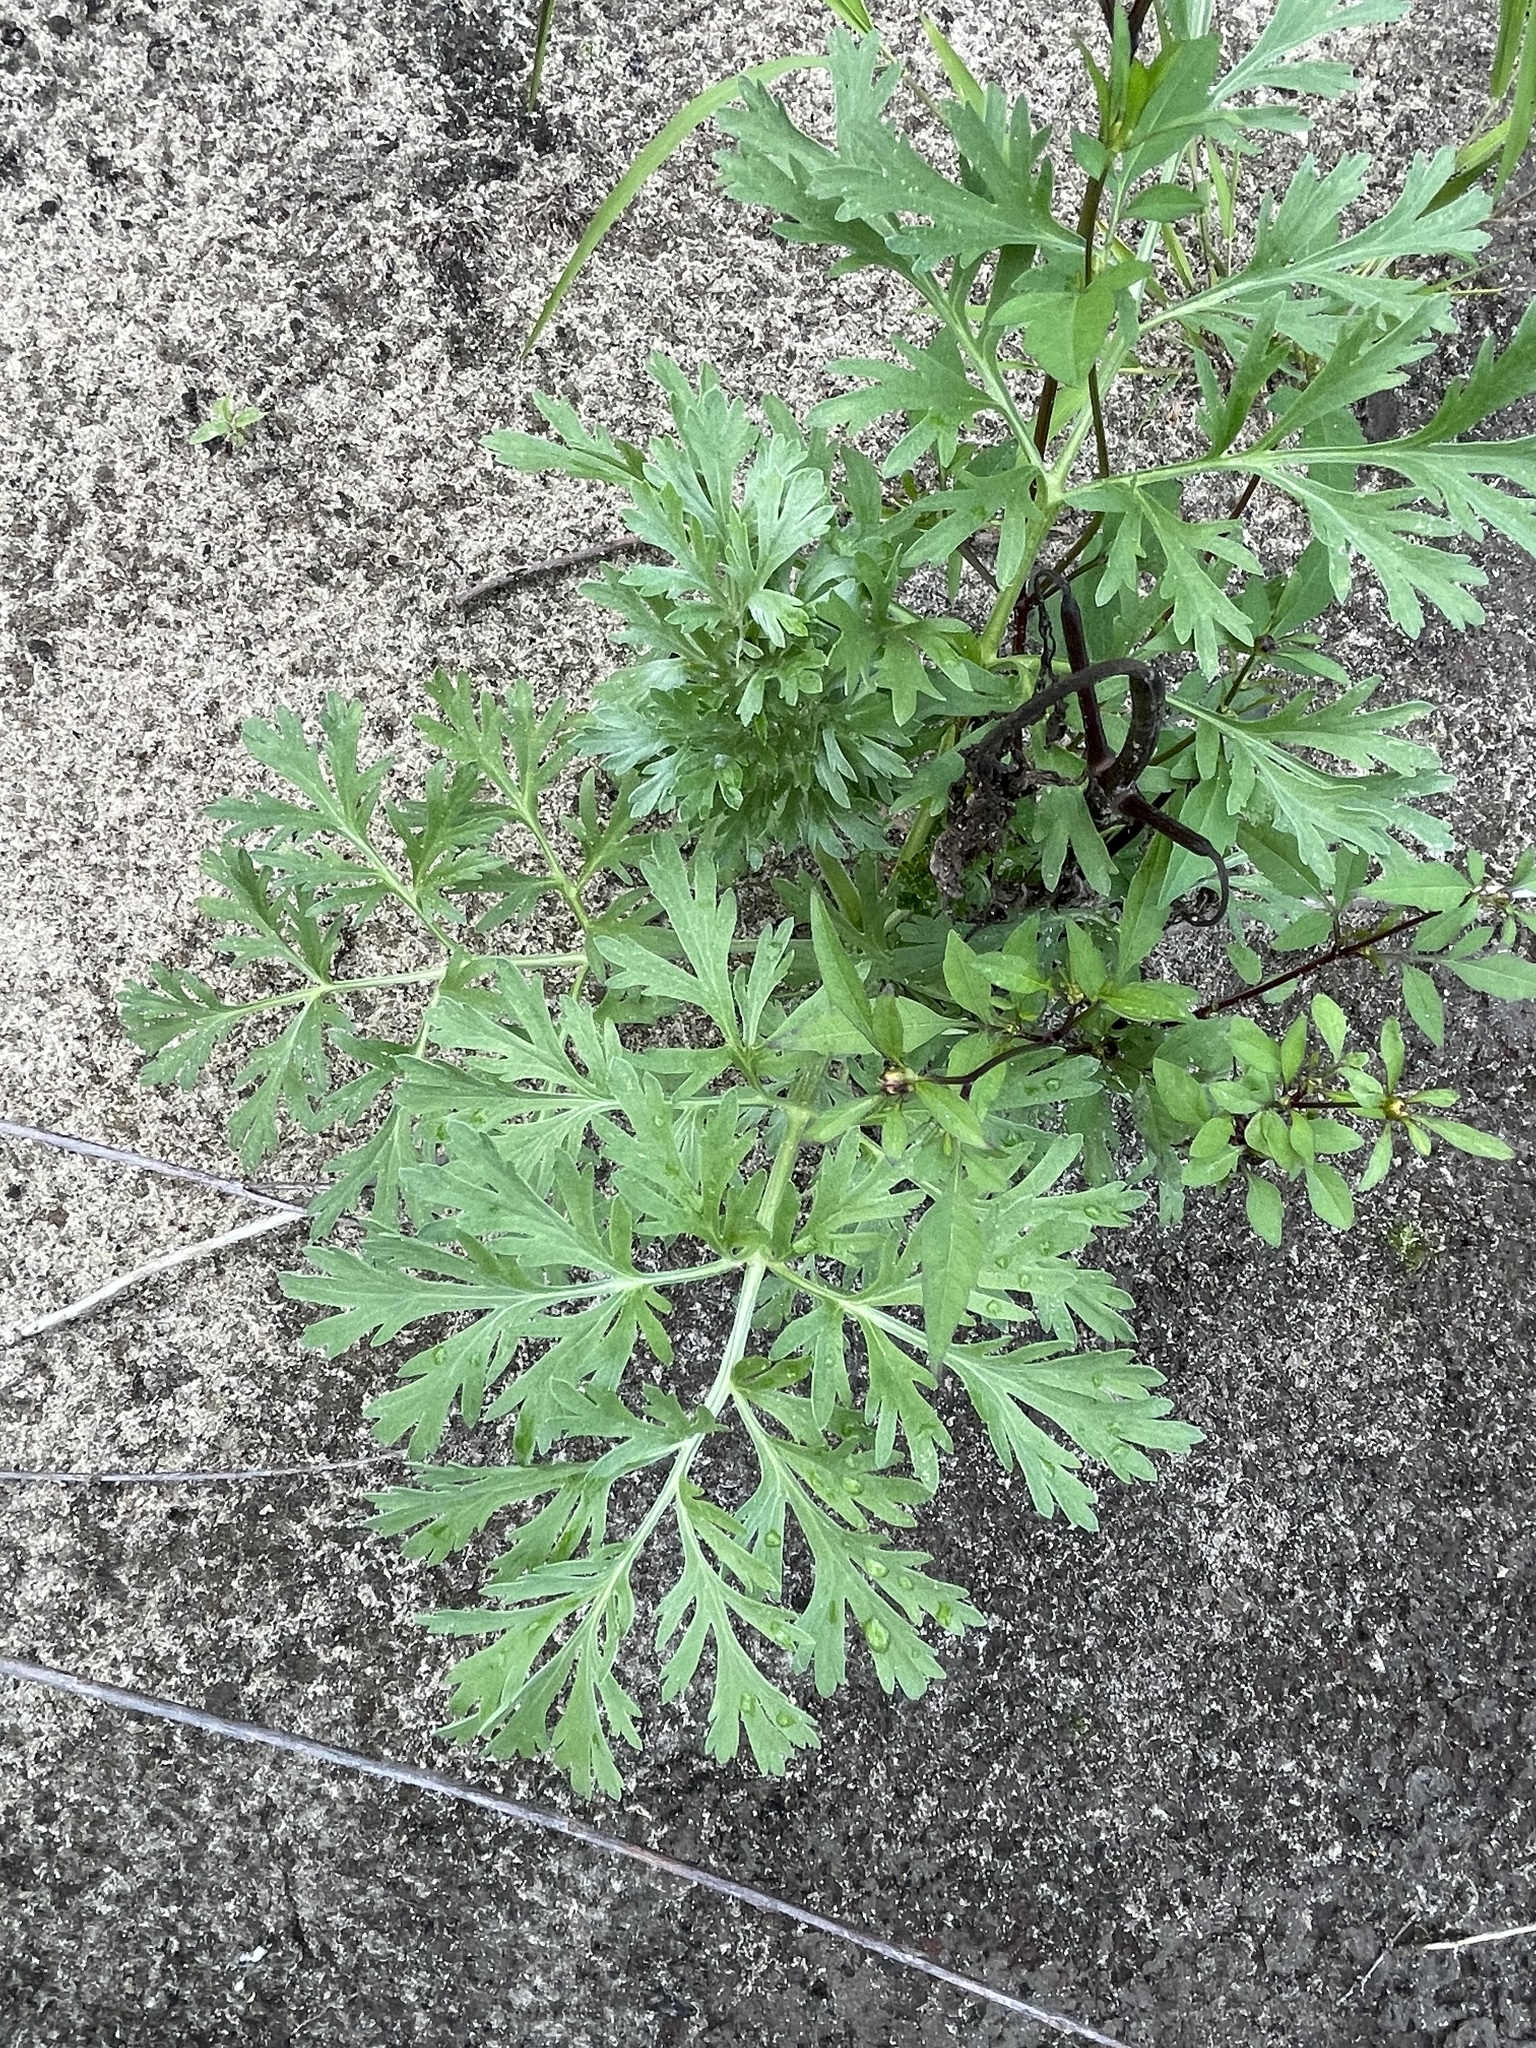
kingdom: Plantae
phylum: Tracheophyta
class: Magnoliopsida
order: Asterales
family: Asteraceae
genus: Artemisia
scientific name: Artemisia sieversiana
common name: Sieversian wormwood
